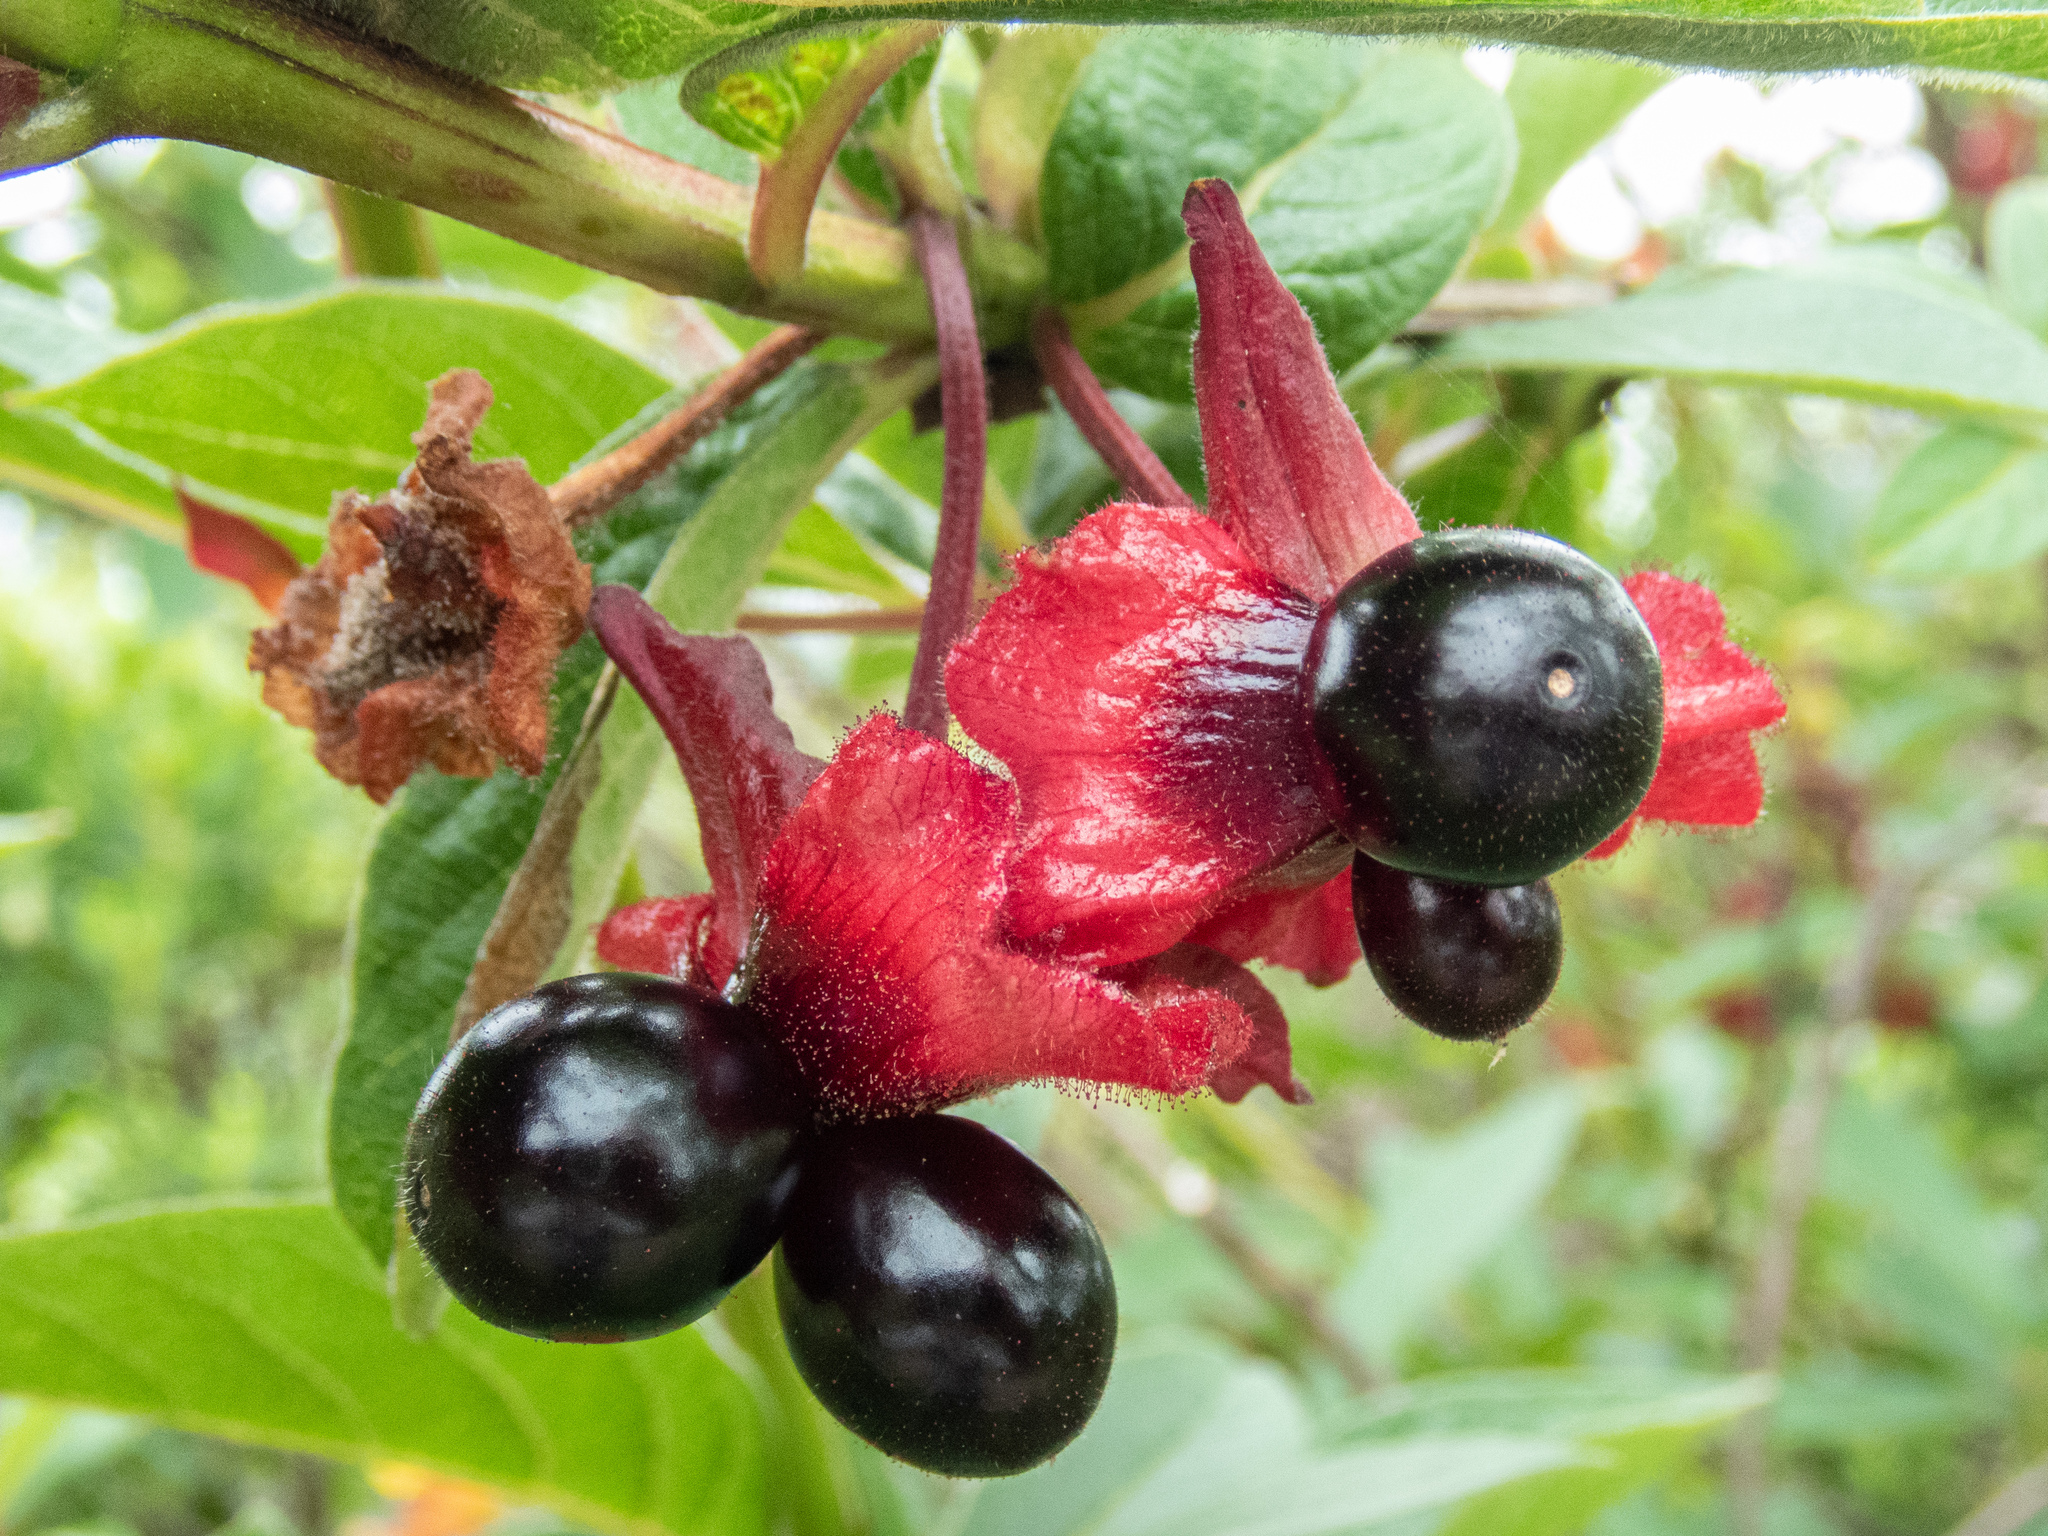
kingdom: Plantae
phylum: Tracheophyta
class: Magnoliopsida
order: Dipsacales
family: Caprifoliaceae
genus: Lonicera
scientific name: Lonicera involucrata
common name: Californian honeysuckle
